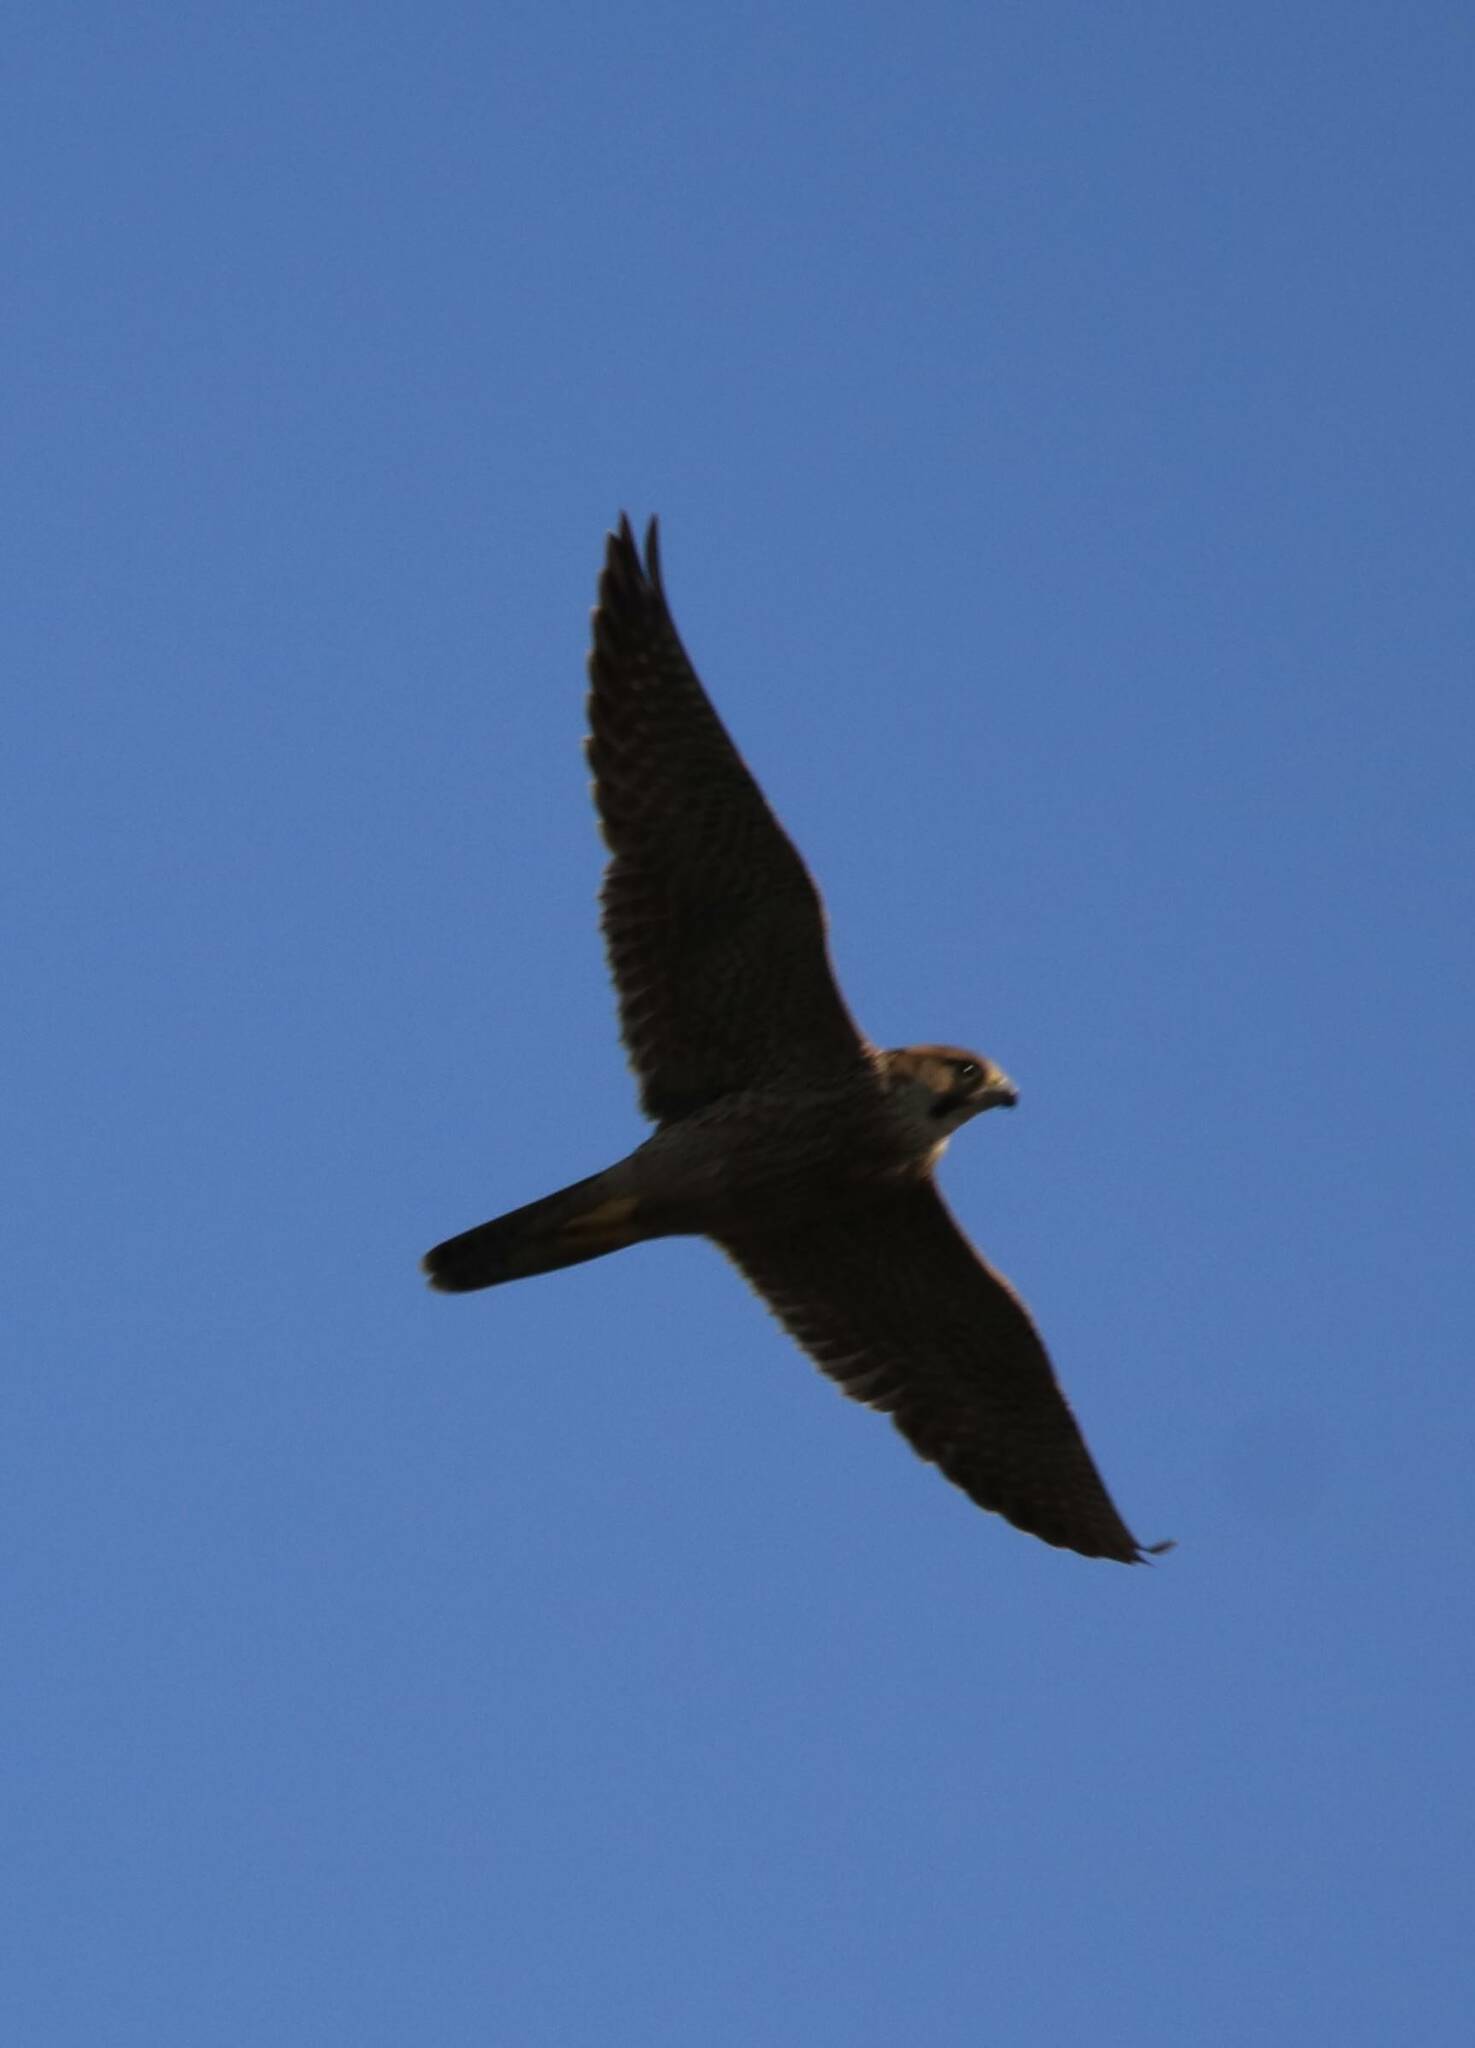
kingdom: Animalia
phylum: Chordata
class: Aves
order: Falconiformes
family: Falconidae
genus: Falco
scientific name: Falco biarmicus
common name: Lanner falcon
